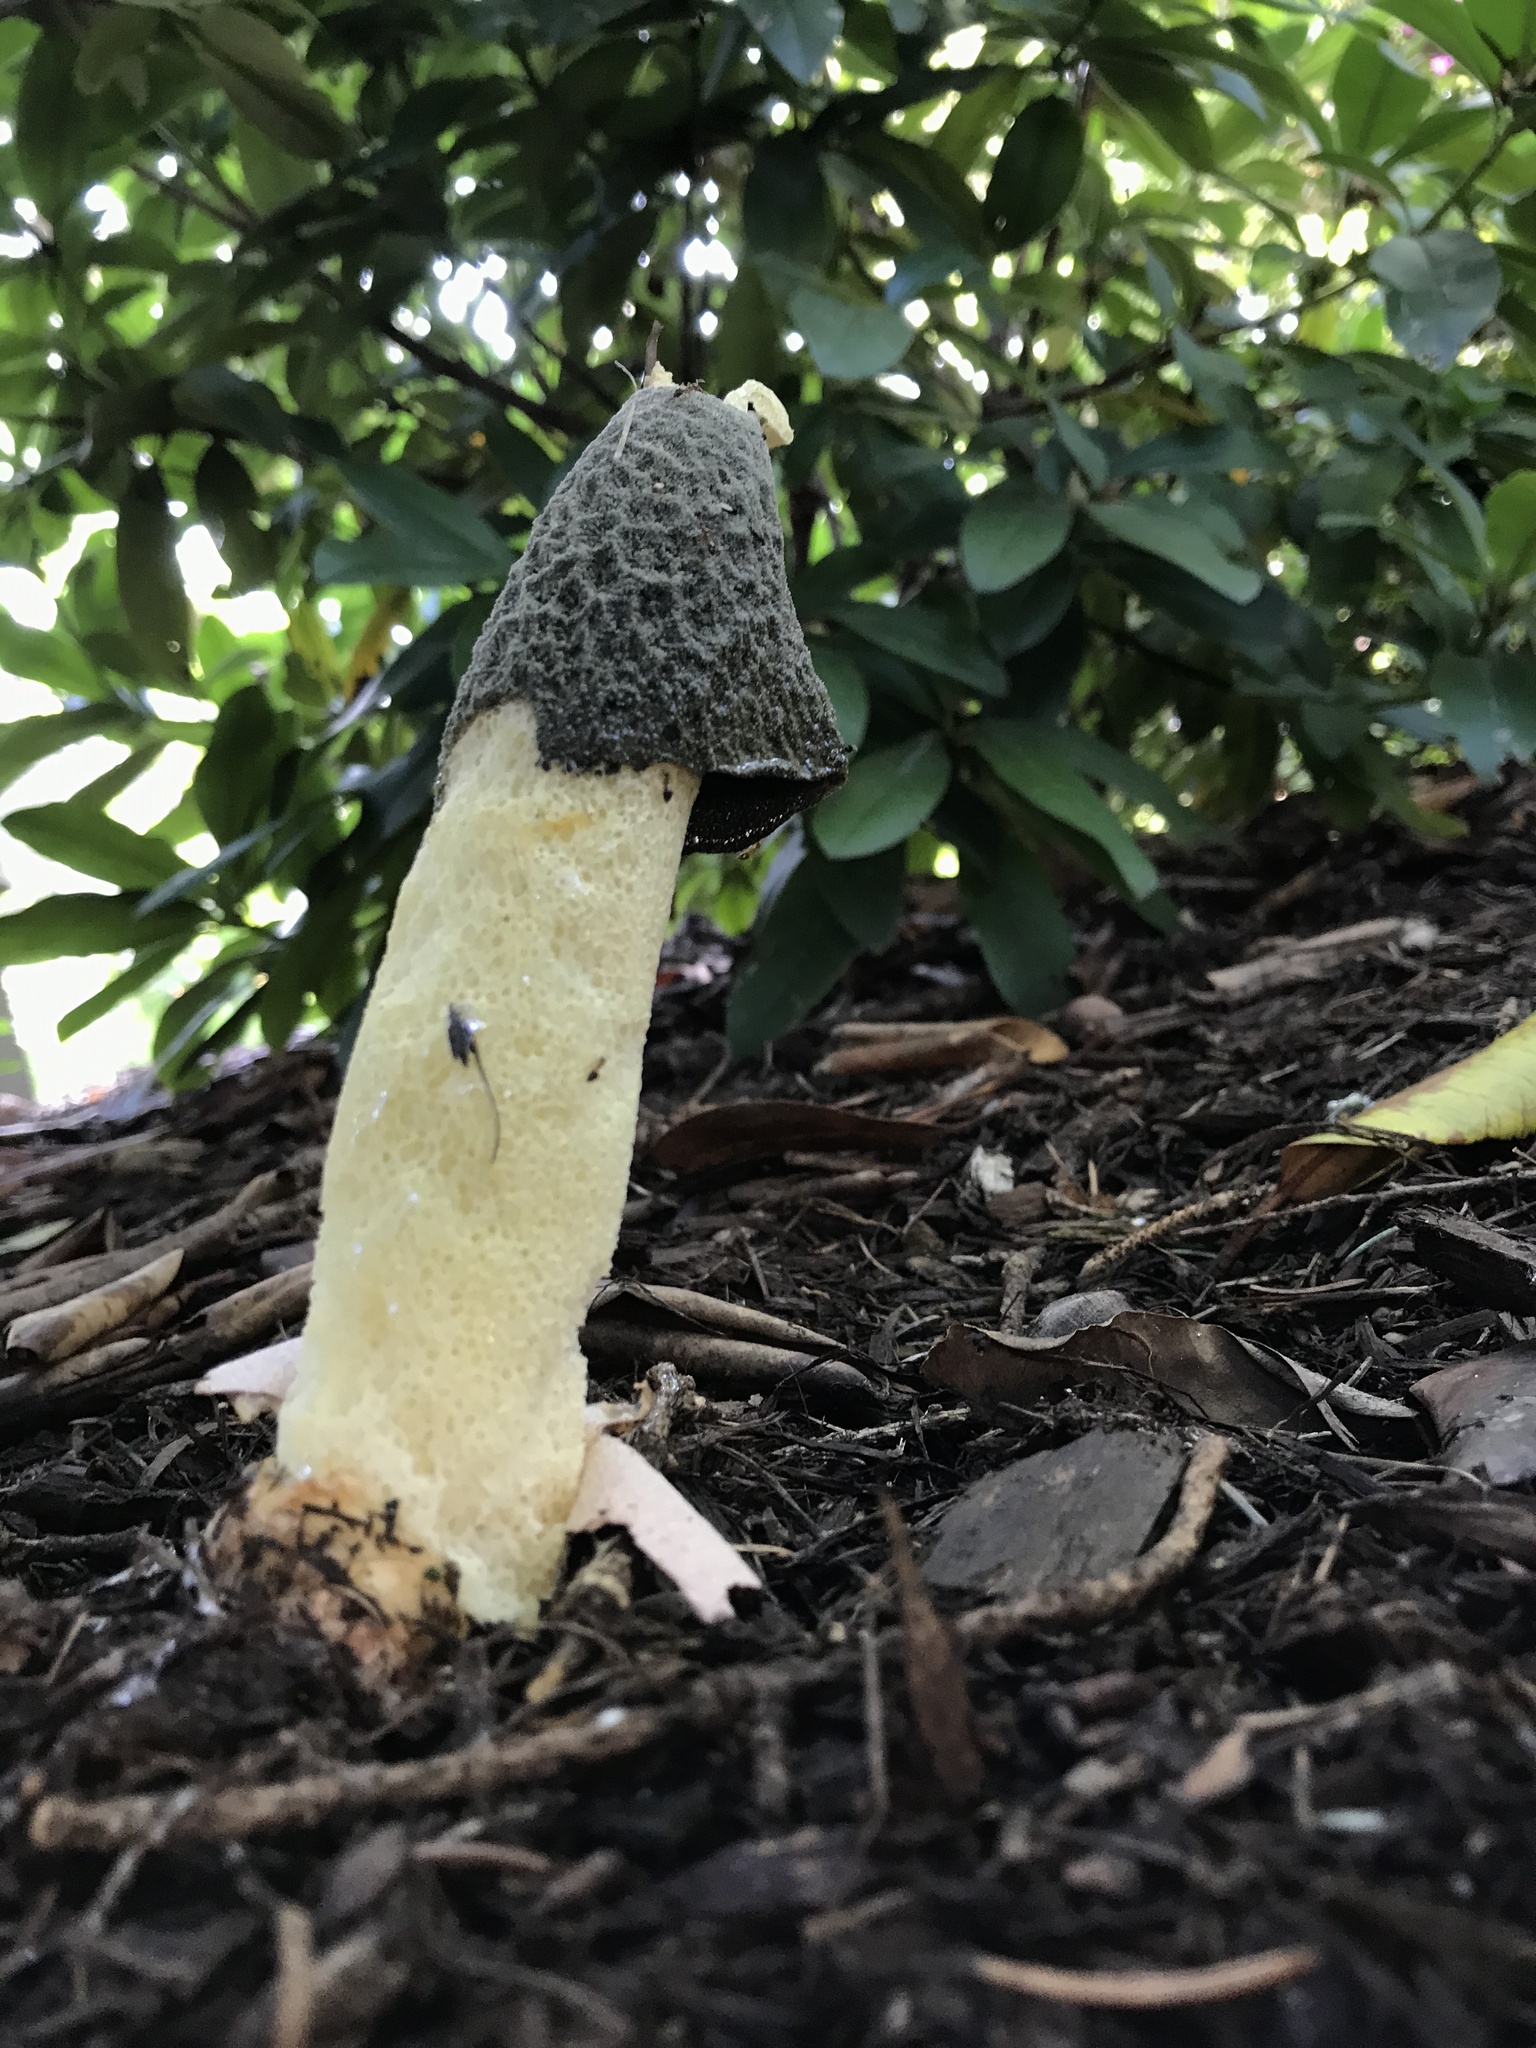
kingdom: Fungi
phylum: Basidiomycota
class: Agaricomycetes
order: Phallales
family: Phallaceae
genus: Phallus
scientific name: Phallus ravenelii
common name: Ravenel's stinkhorn
